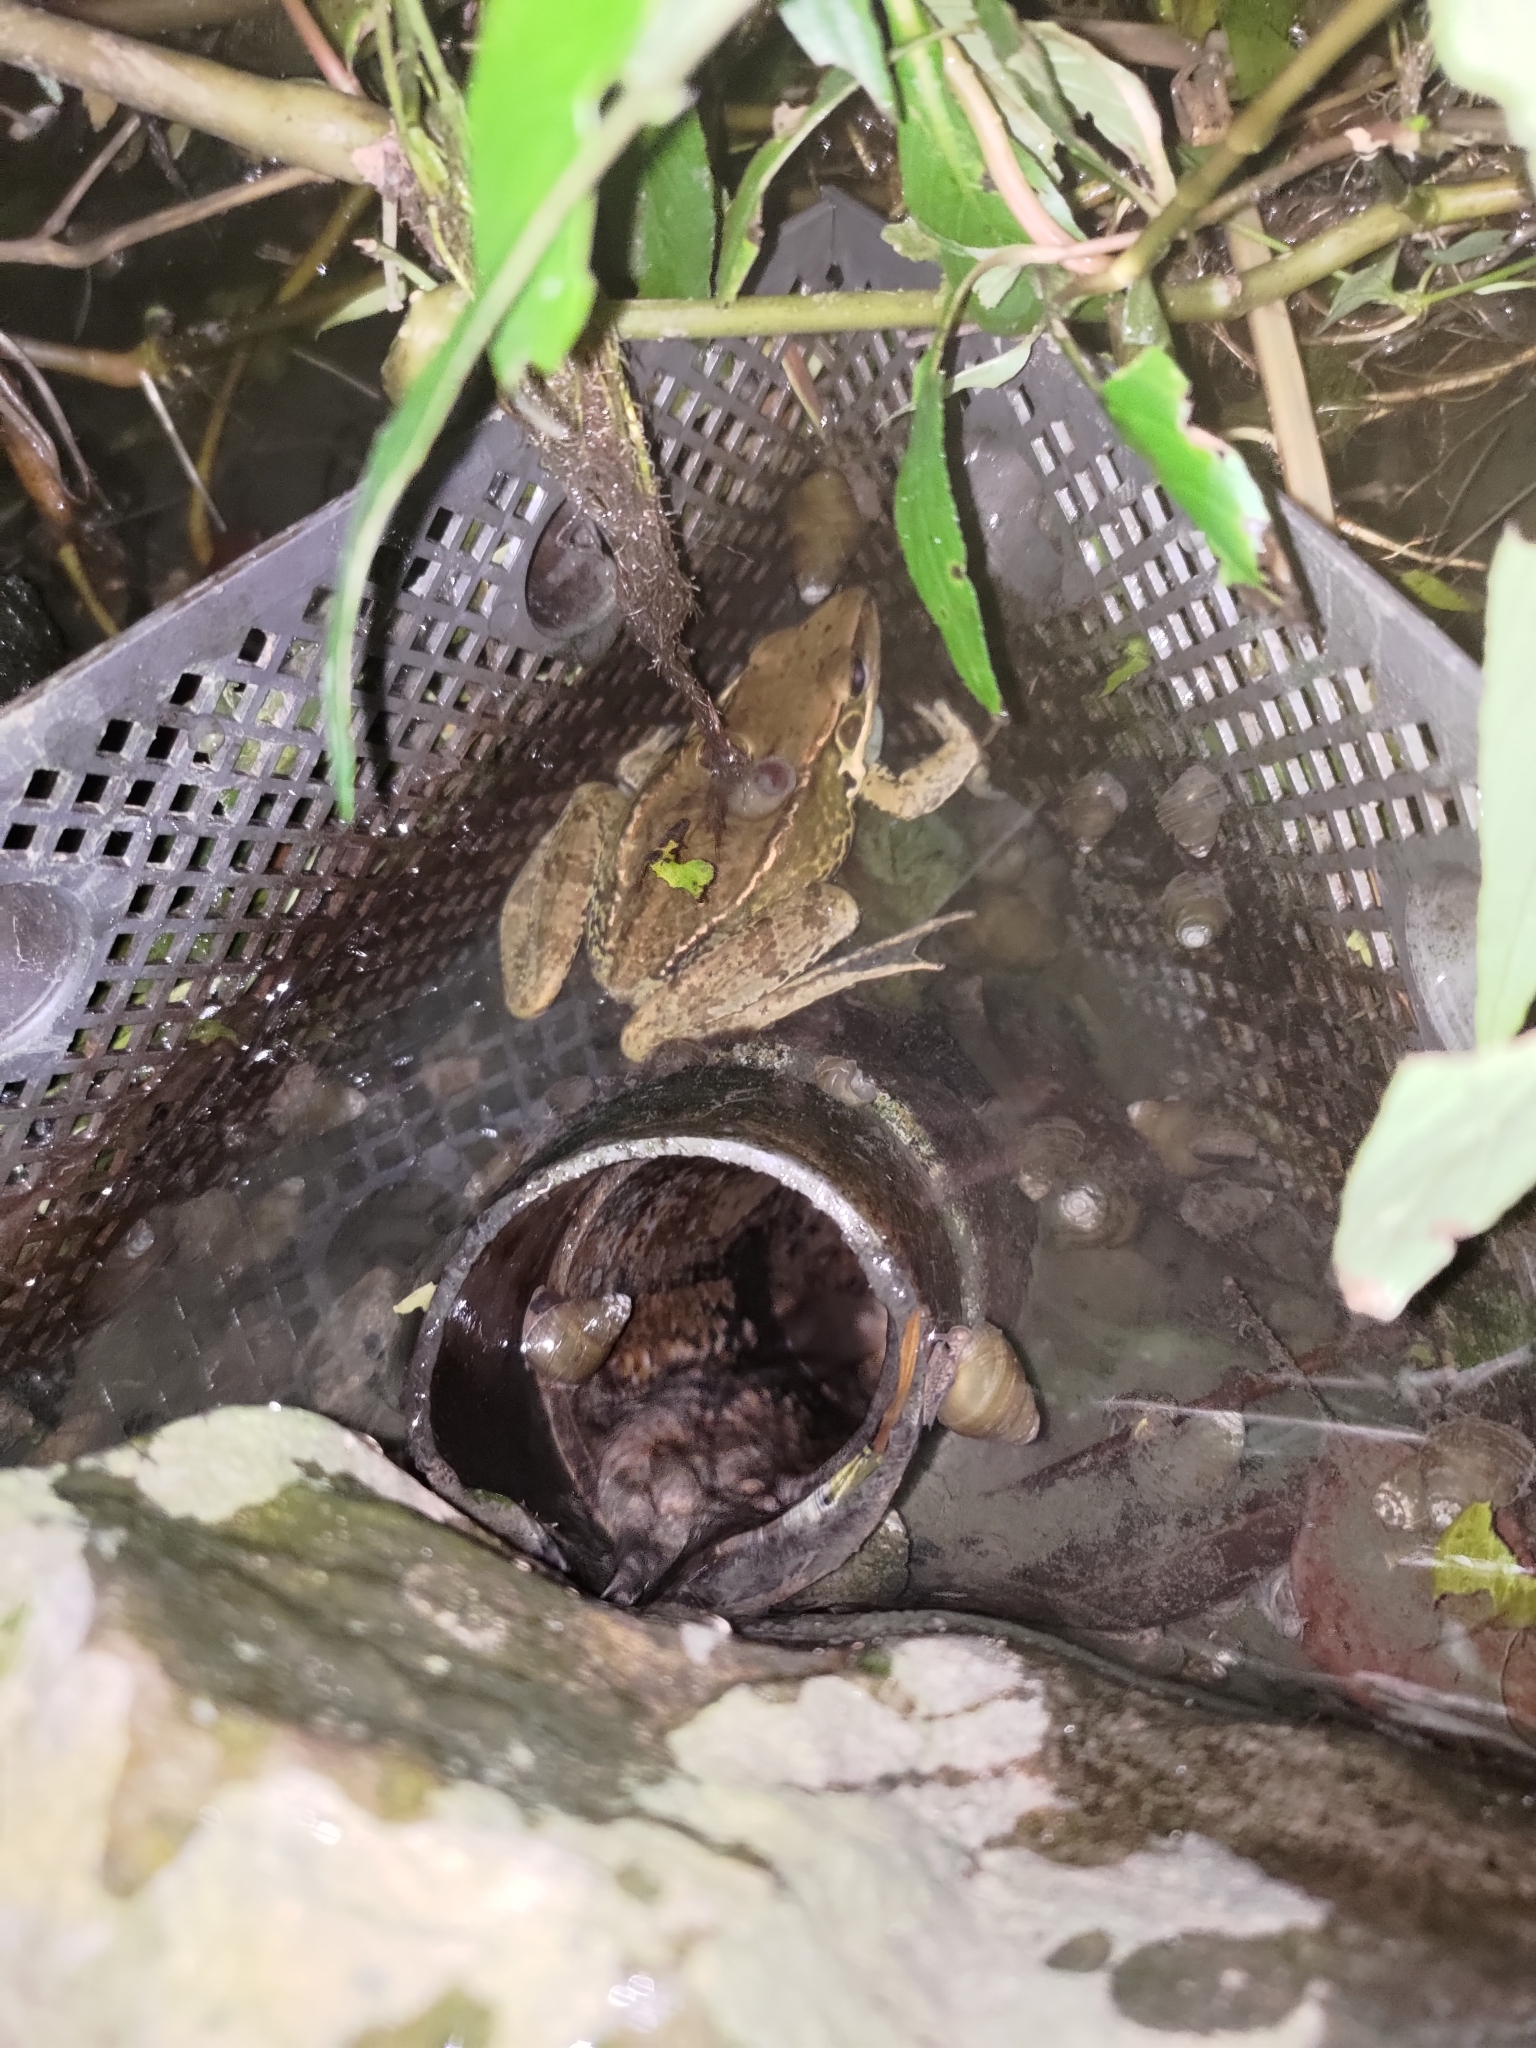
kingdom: Animalia
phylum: Chordata
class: Amphibia
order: Anura
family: Ranidae
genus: Sylvirana
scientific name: Sylvirana guentheri
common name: Guenther's amoy frog
